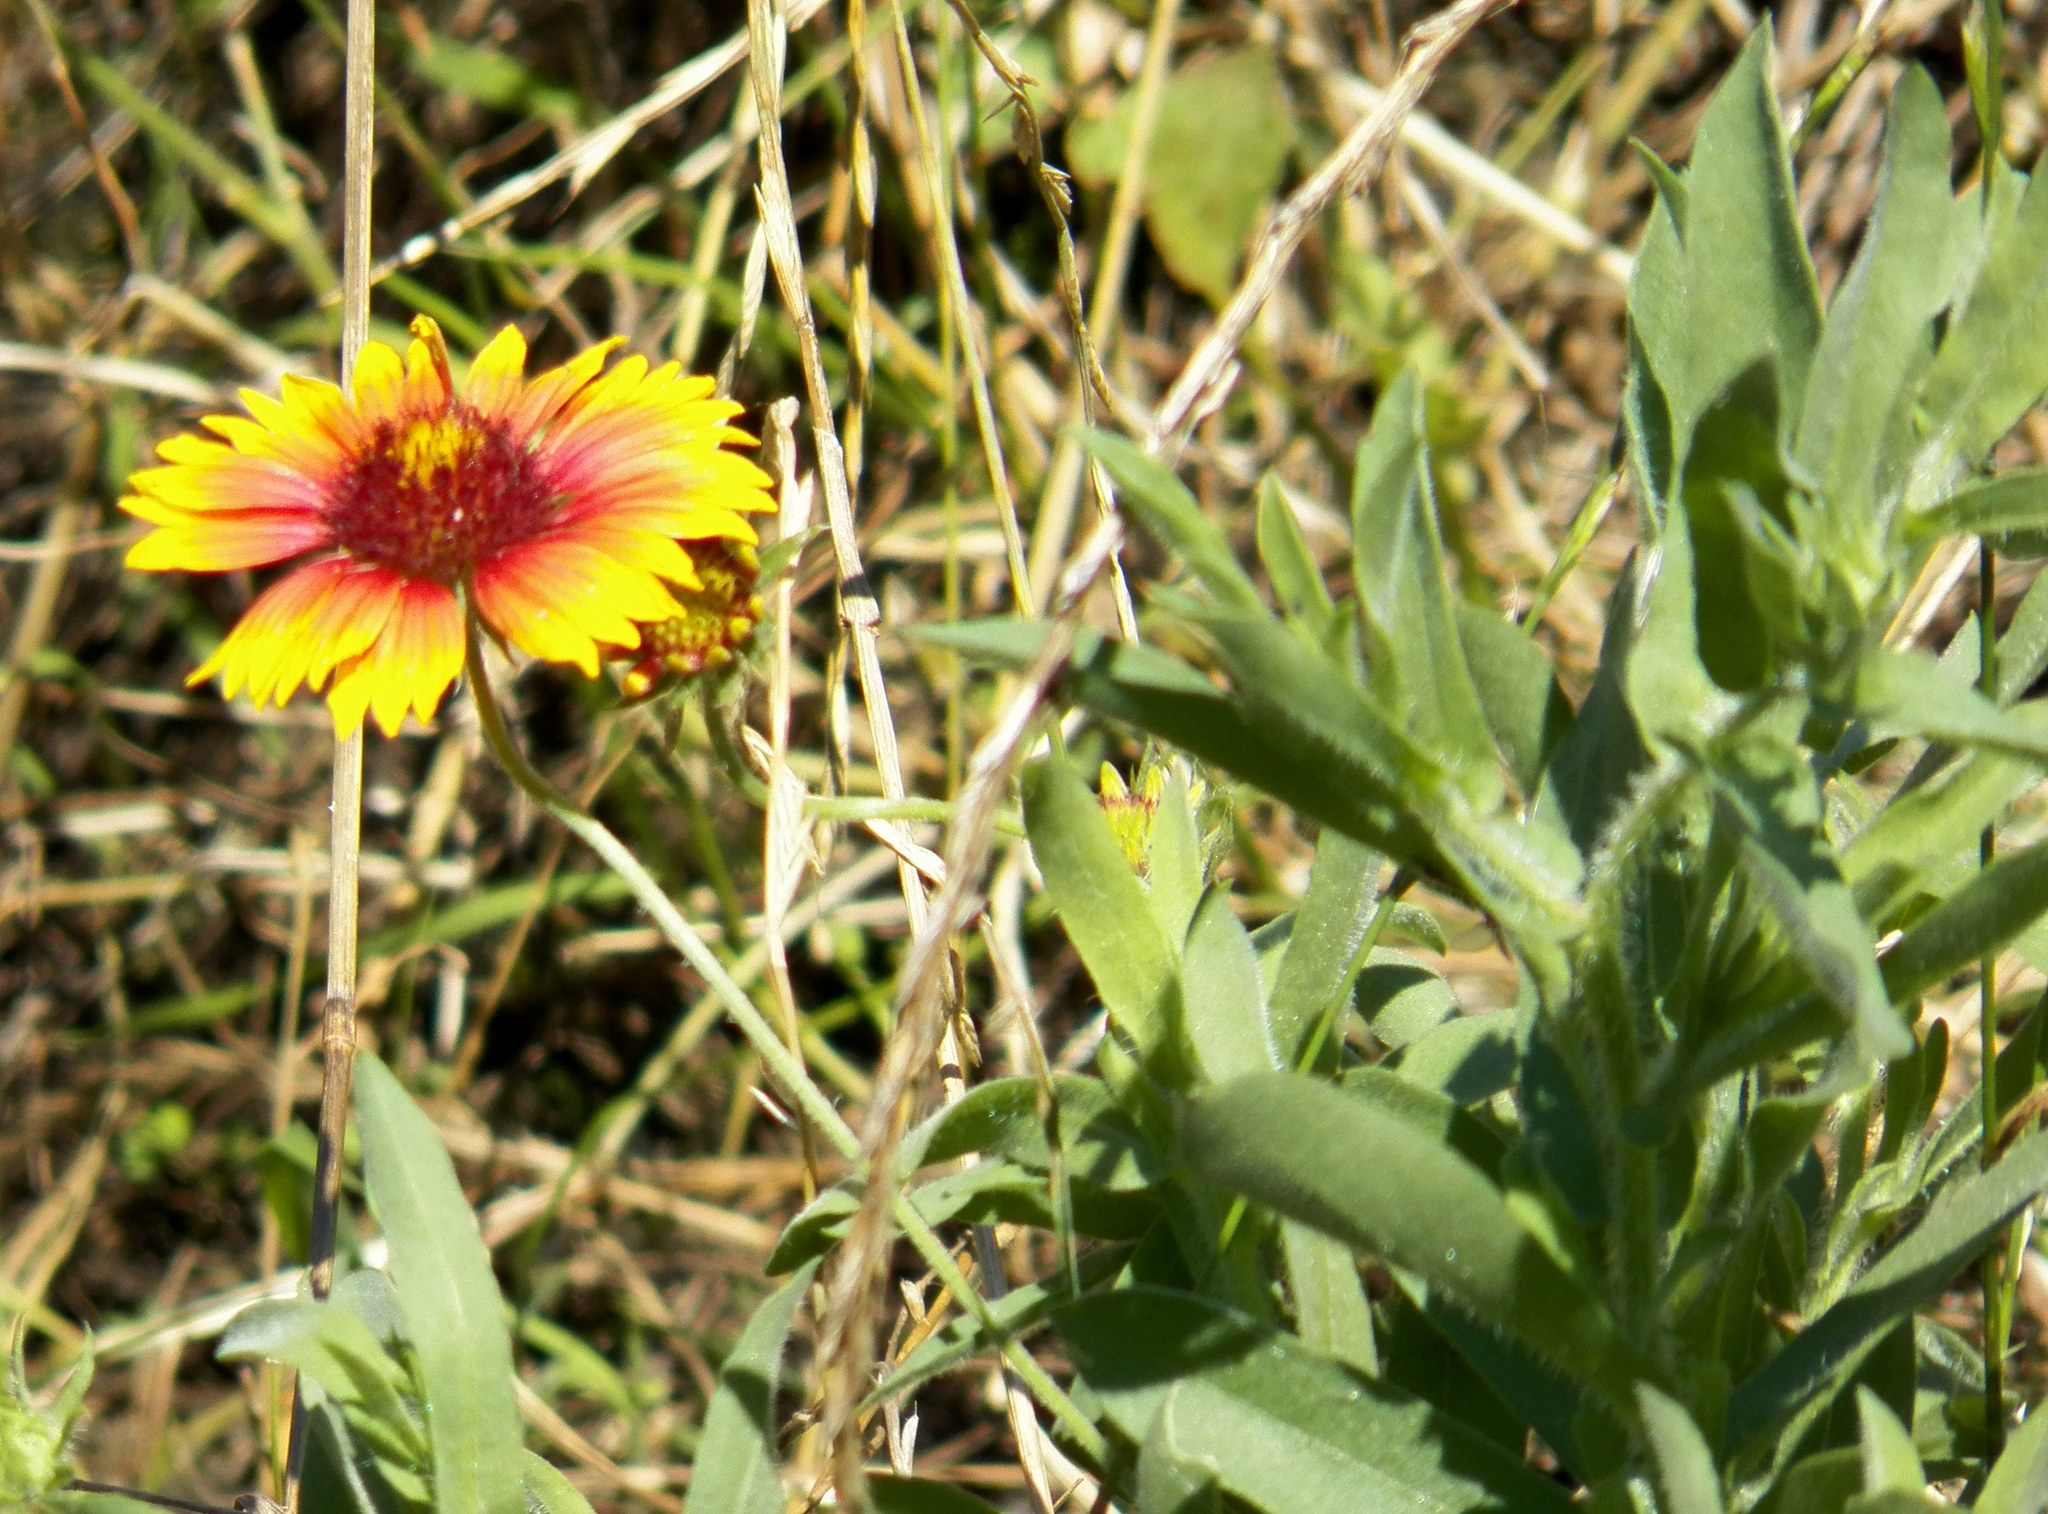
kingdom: Plantae
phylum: Tracheophyta
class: Magnoliopsida
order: Asterales
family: Asteraceae
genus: Gaillardia
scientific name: Gaillardia pulchella
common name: Firewheel
